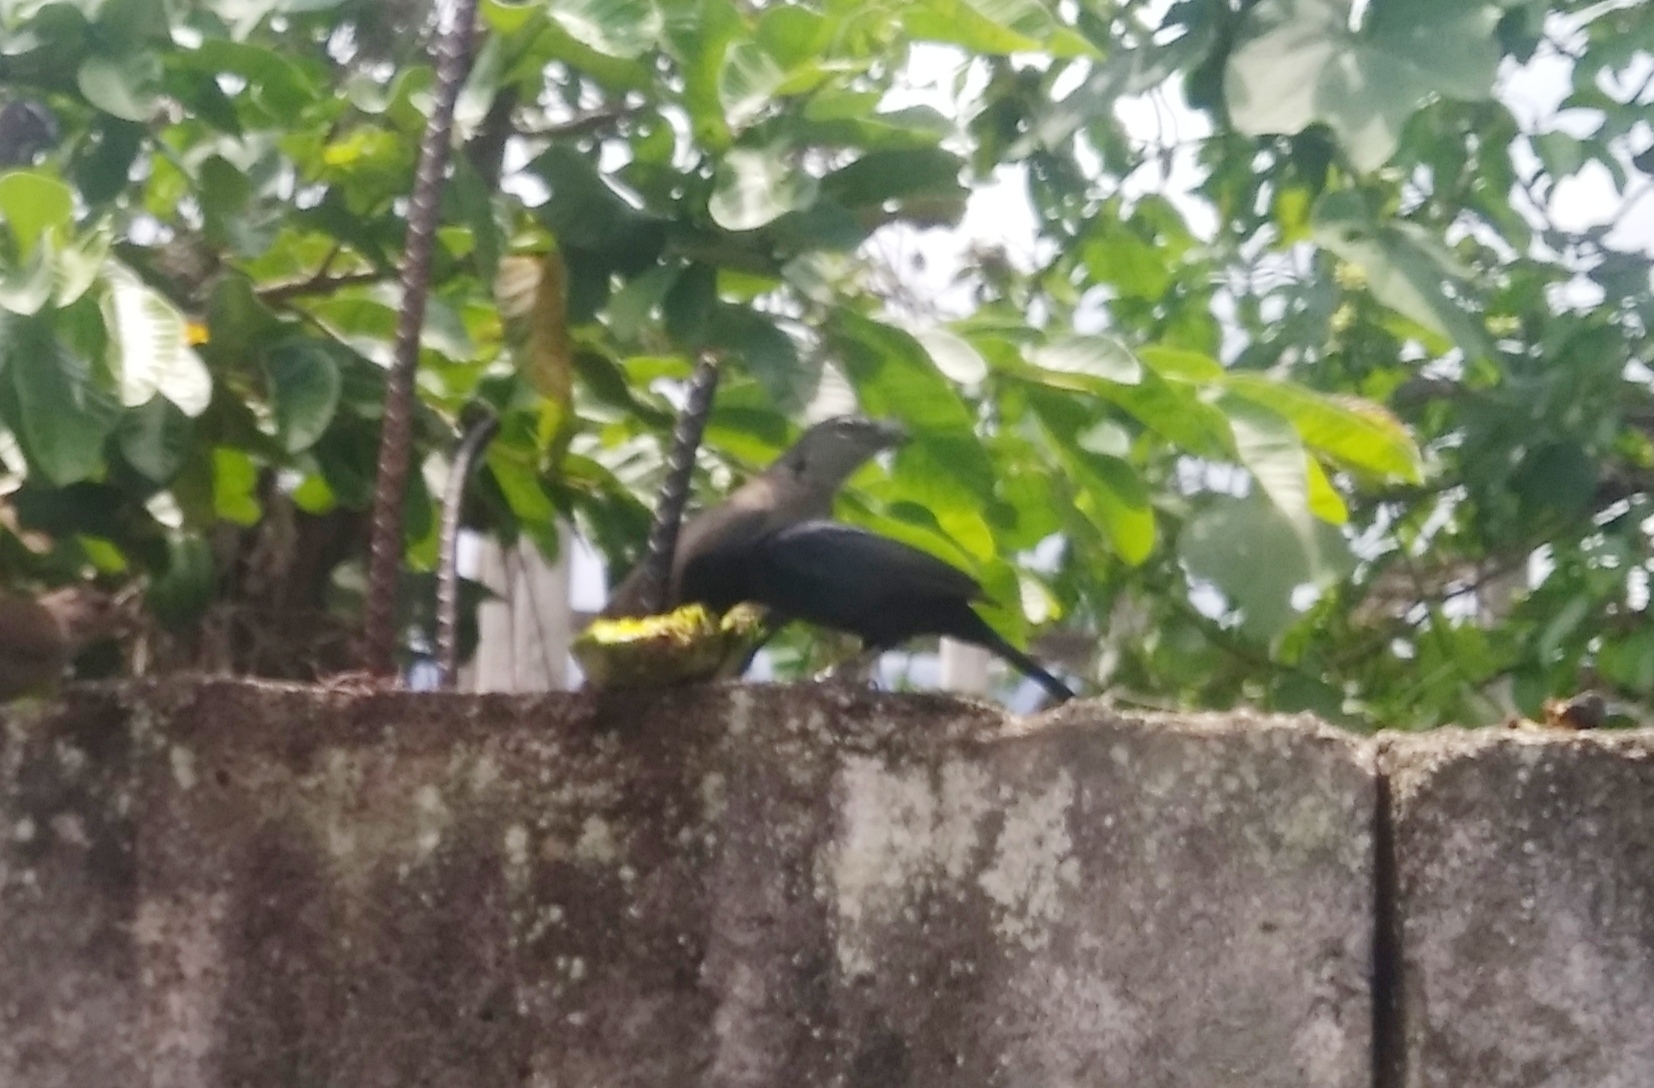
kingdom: Animalia
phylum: Chordata
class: Aves
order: Passeriformes
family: Thraupidae
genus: Saltator
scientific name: Saltator olivascens
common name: Caribbean grey saltator
